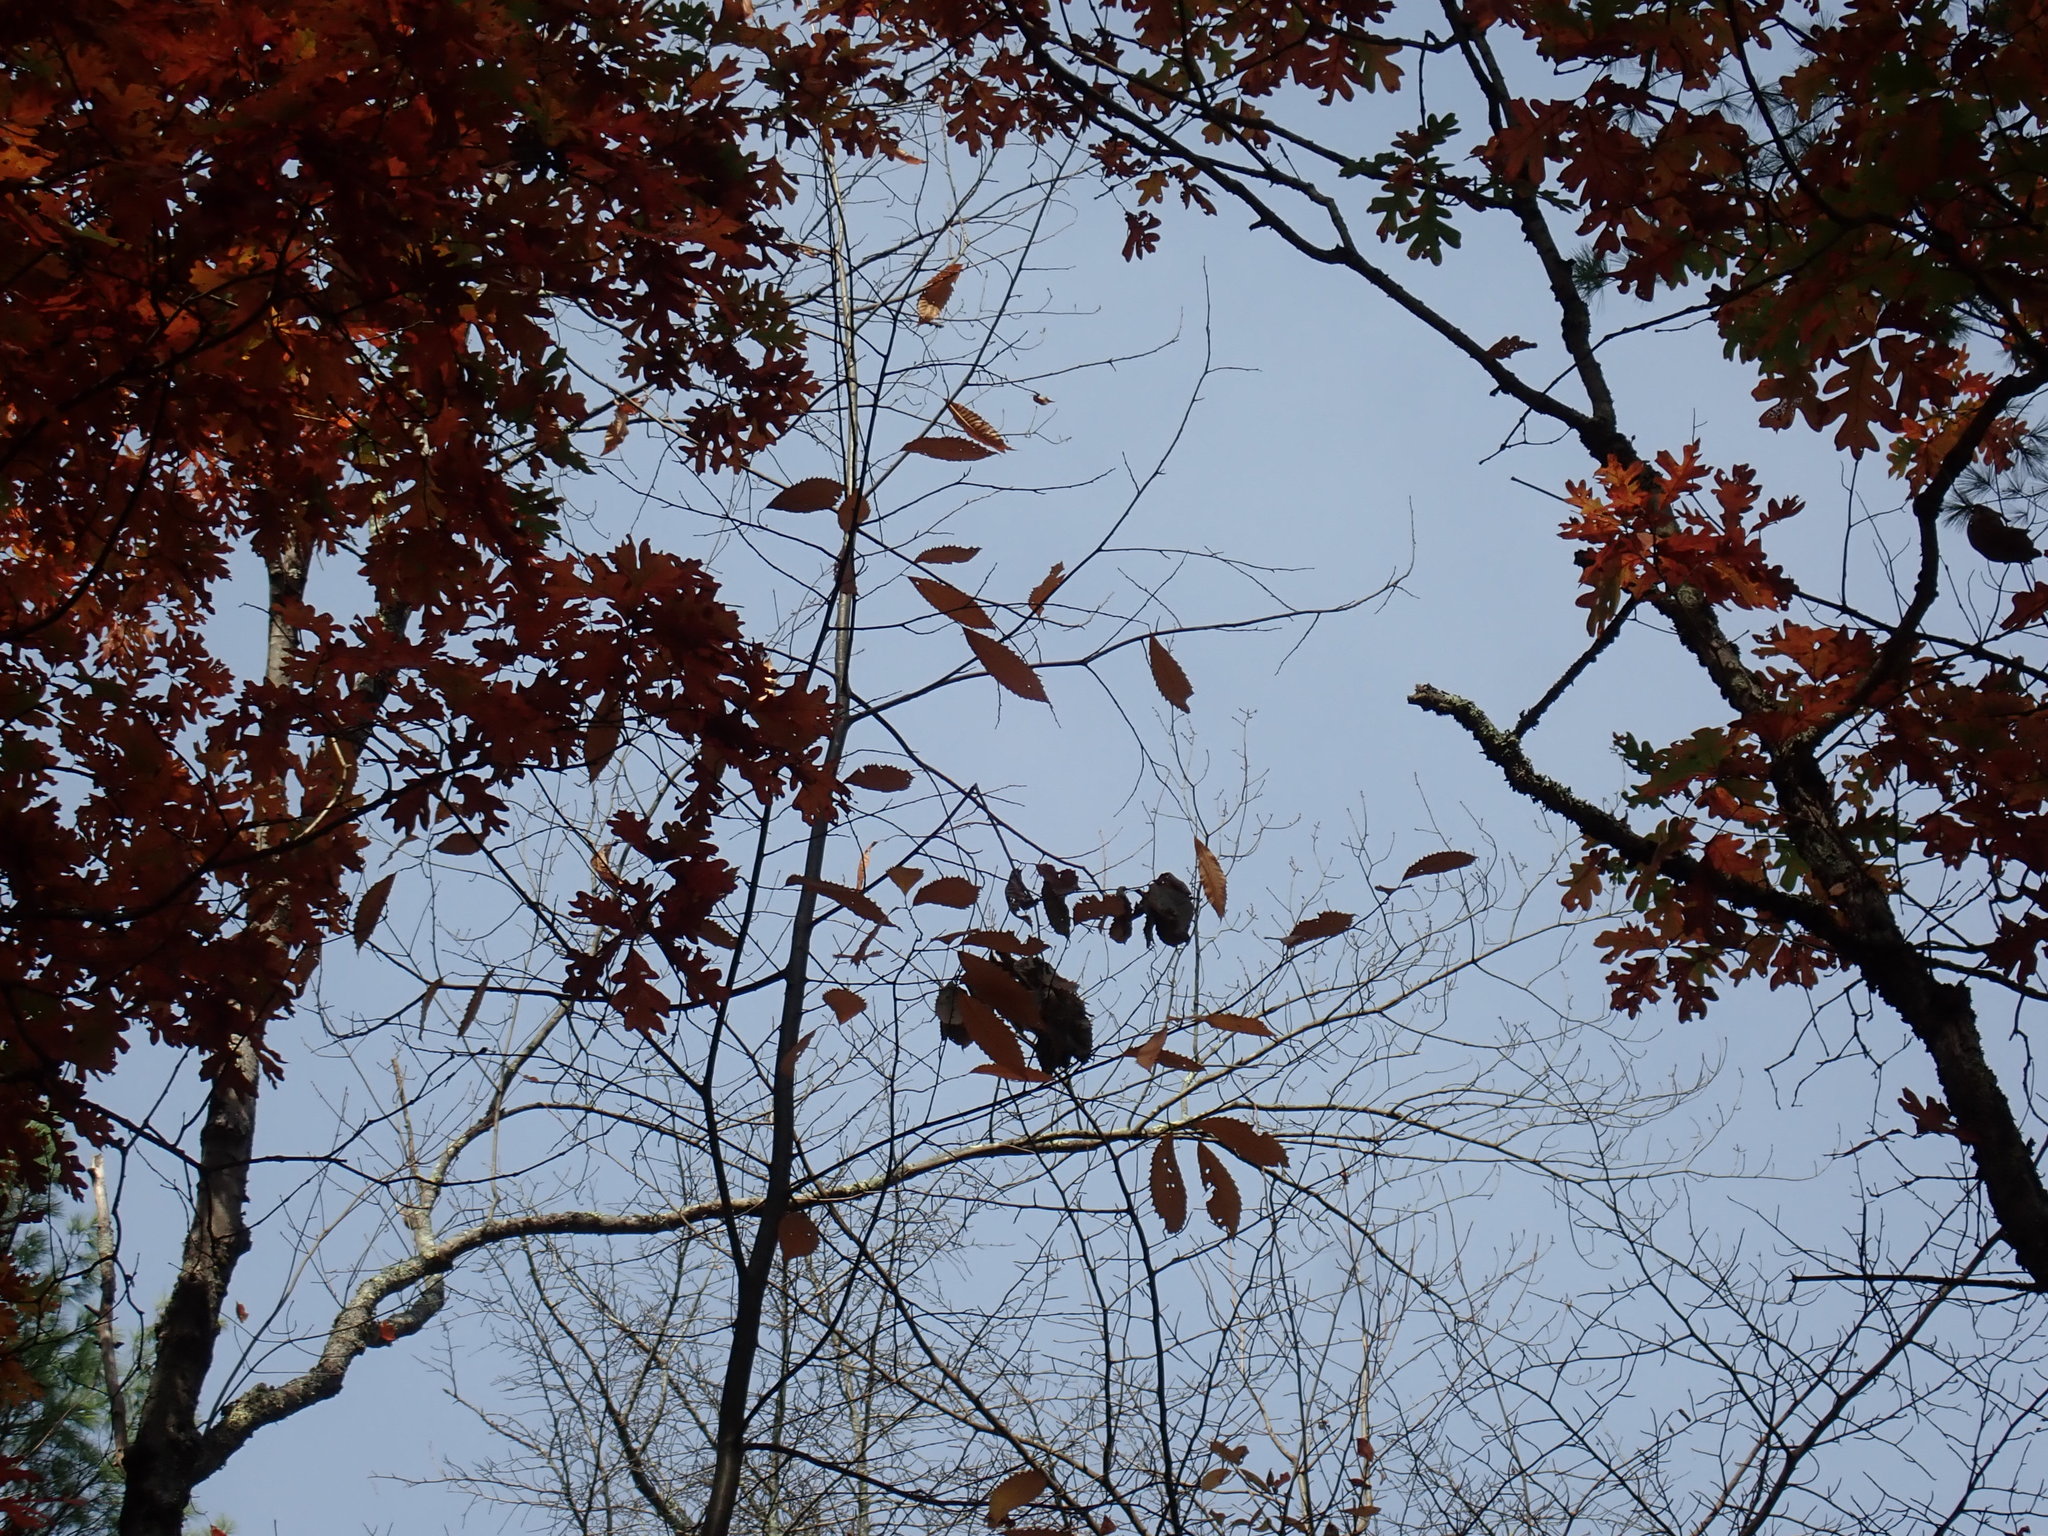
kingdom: Plantae
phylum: Tracheophyta
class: Magnoliopsida
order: Fagales
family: Fagaceae
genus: Castanea
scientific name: Castanea dentata
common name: American chestnut
